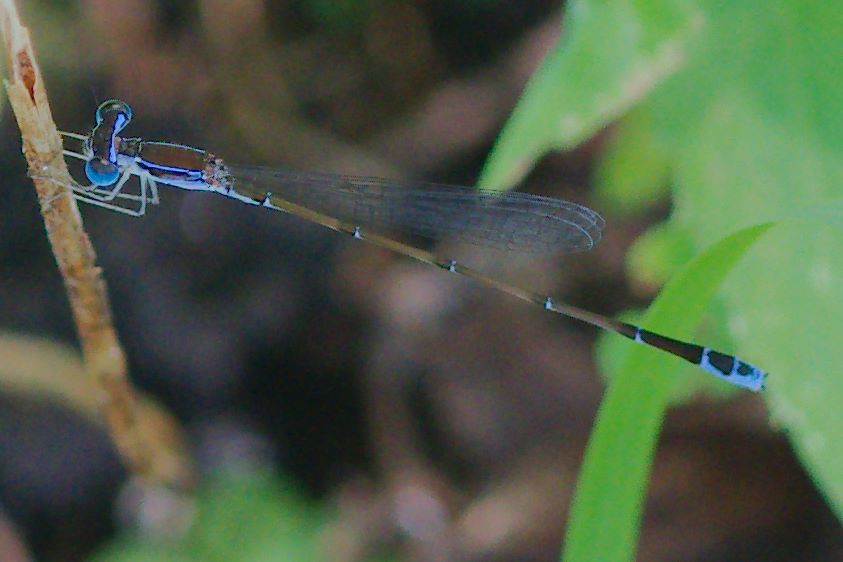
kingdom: Animalia
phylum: Arthropoda
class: Insecta
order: Odonata
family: Coenagrionidae
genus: Nehalennia
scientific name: Nehalennia pallidula
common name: Everglades sprite
